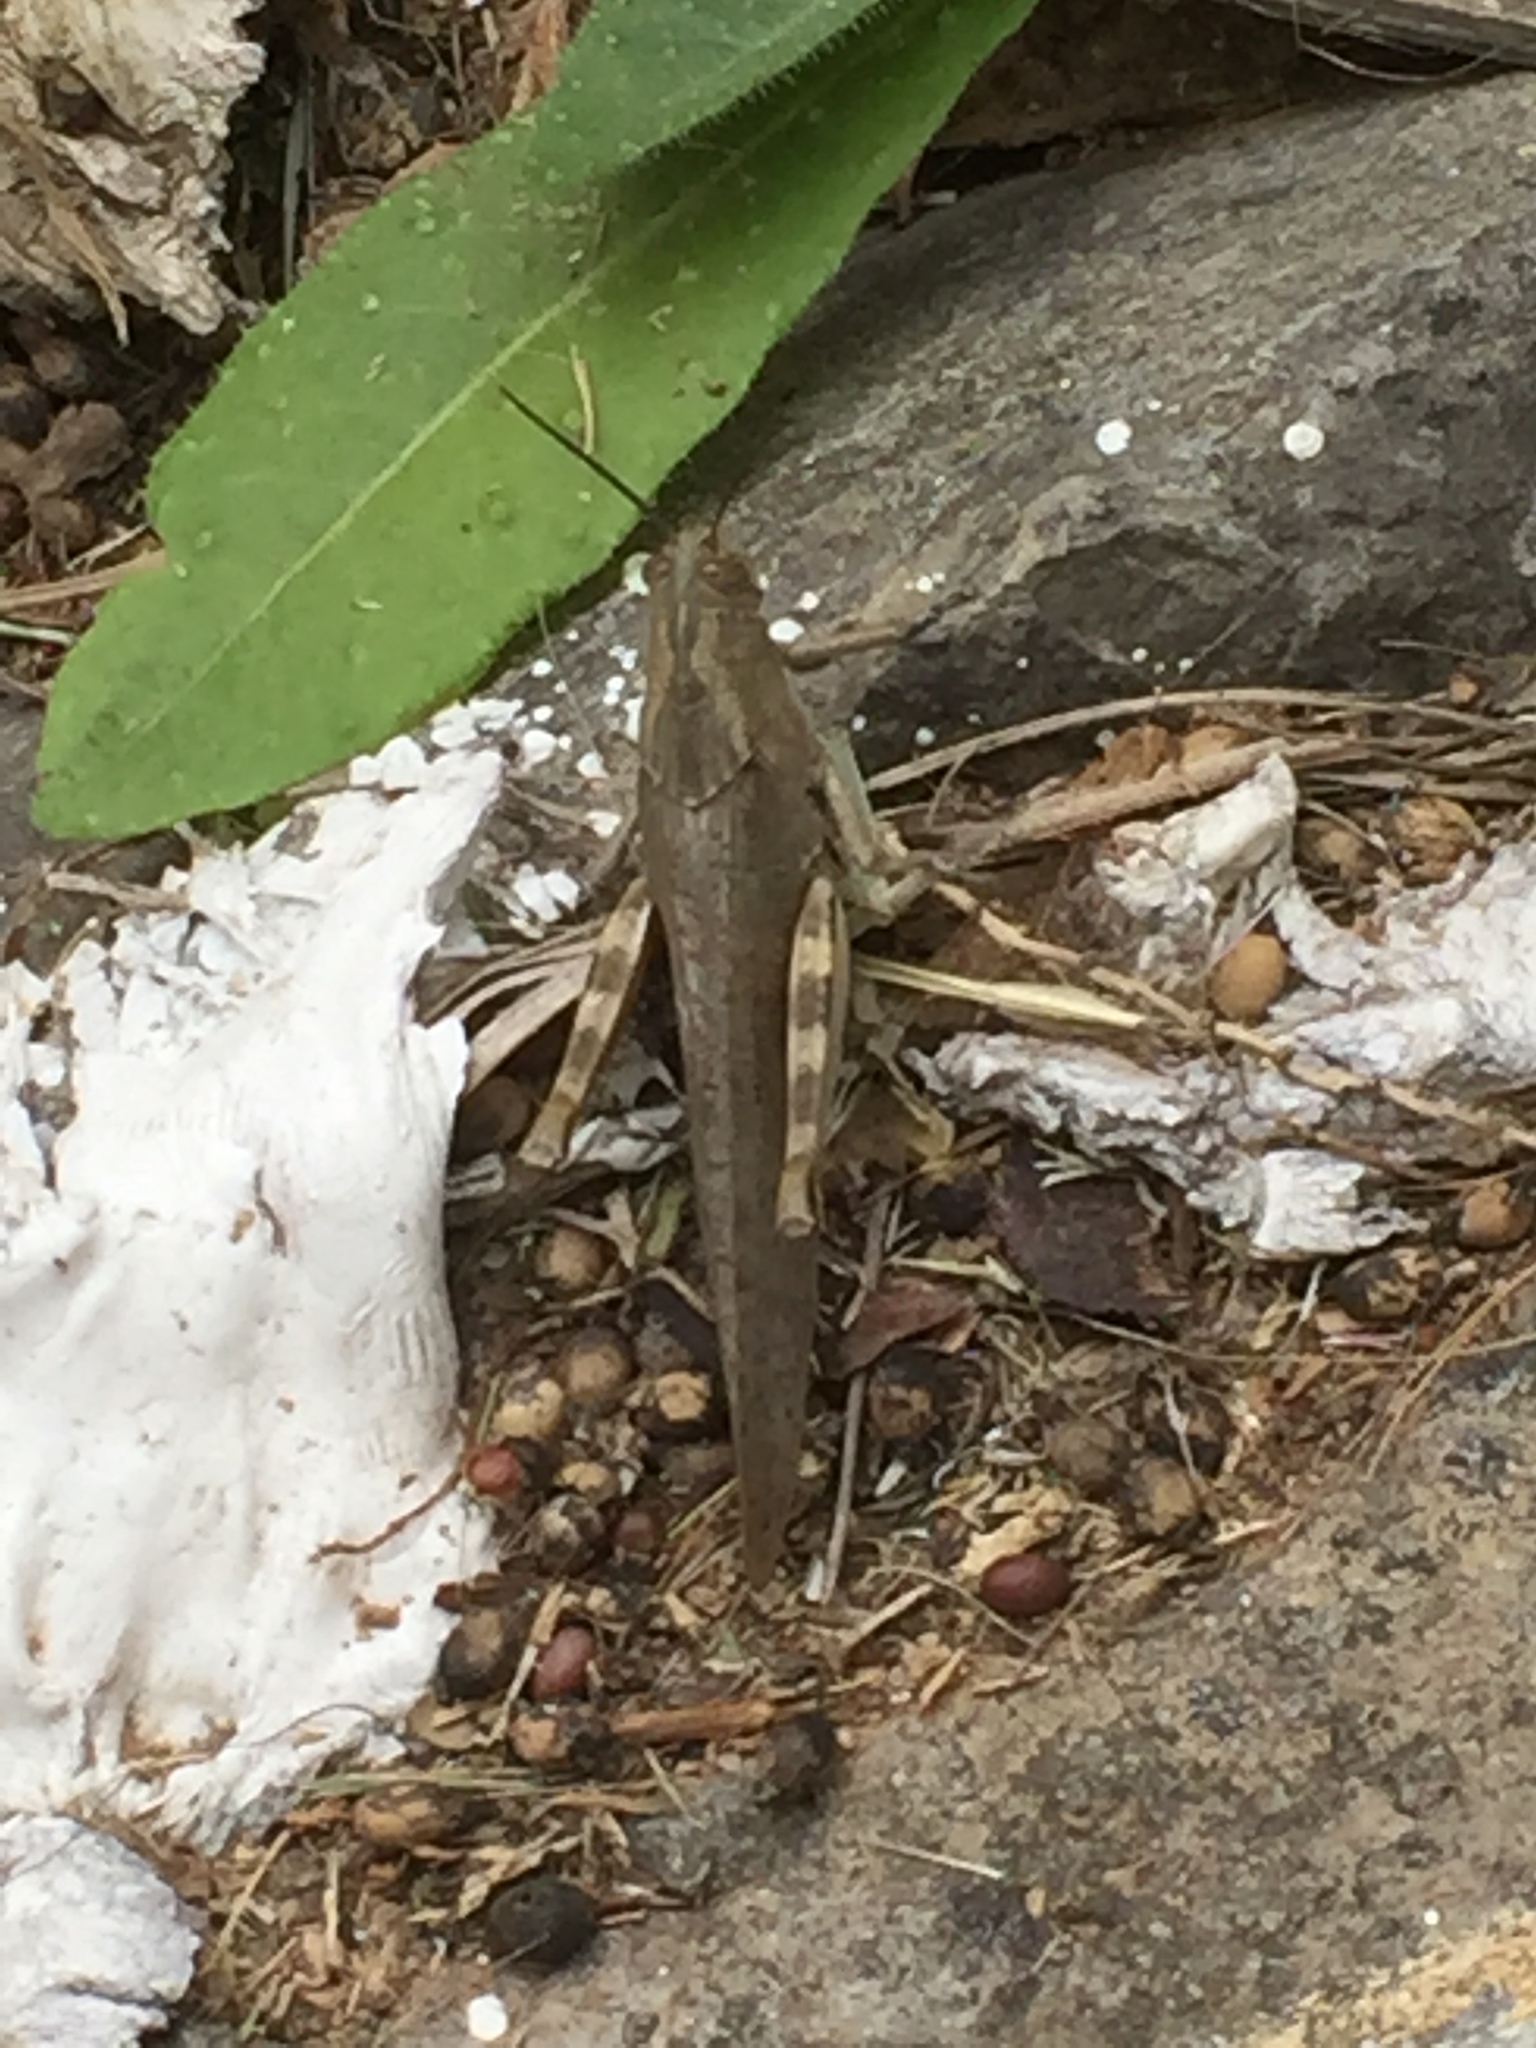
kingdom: Animalia
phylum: Arthropoda
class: Insecta
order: Orthoptera
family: Acrididae
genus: Anacridium
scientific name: Anacridium aegyptium
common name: Egyptian grasshopper
